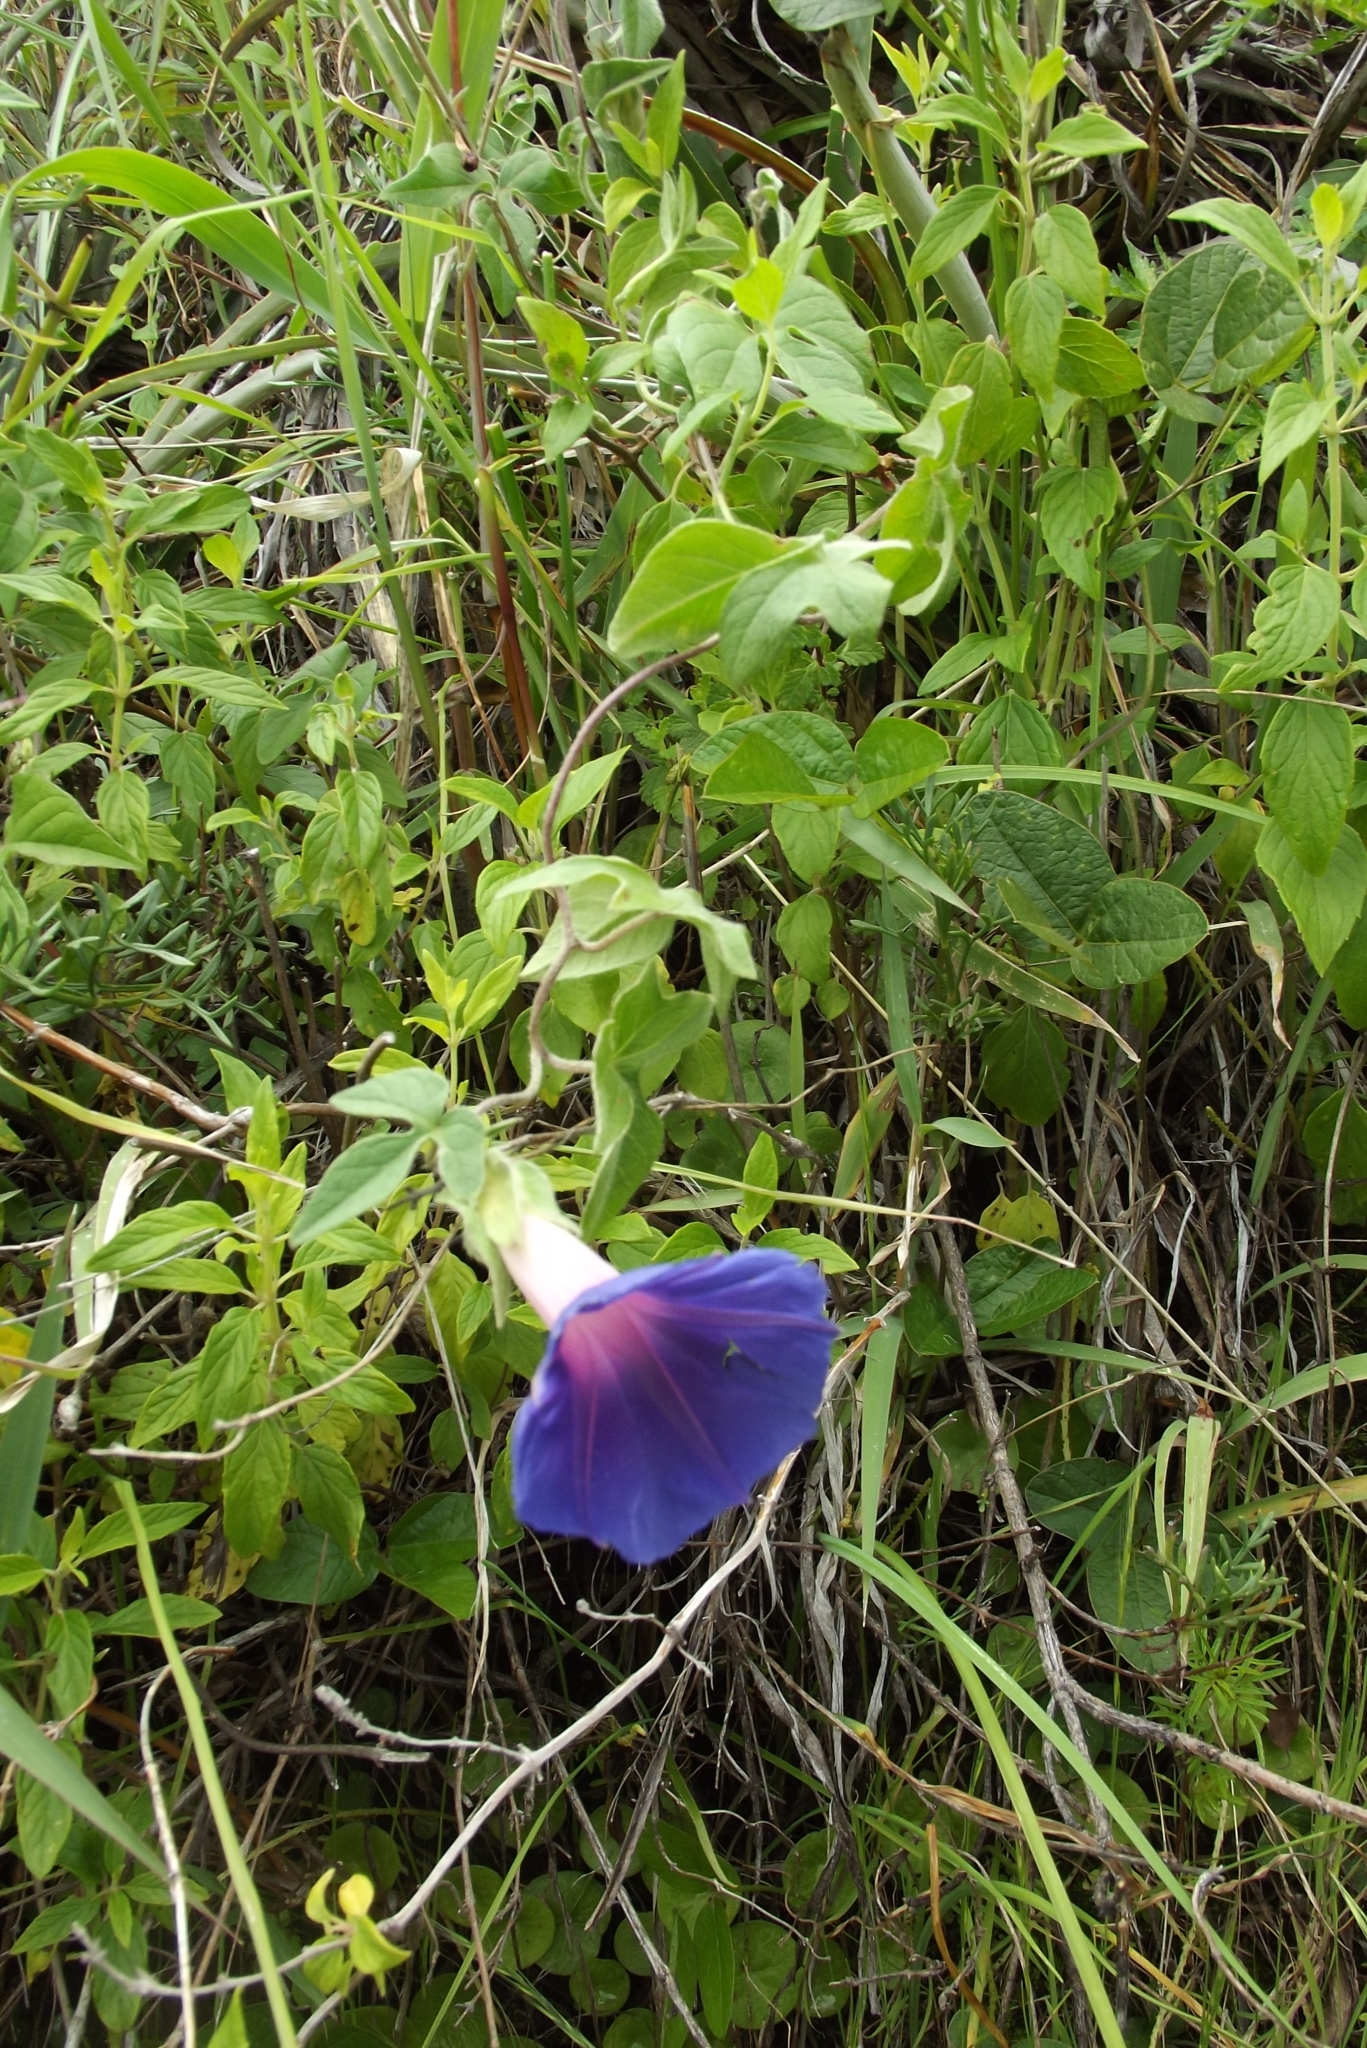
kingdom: Plantae
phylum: Tracheophyta
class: Magnoliopsida
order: Solanales
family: Convolvulaceae
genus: Ipomoea
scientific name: Ipomoea pubescens
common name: Silky morning-glory
